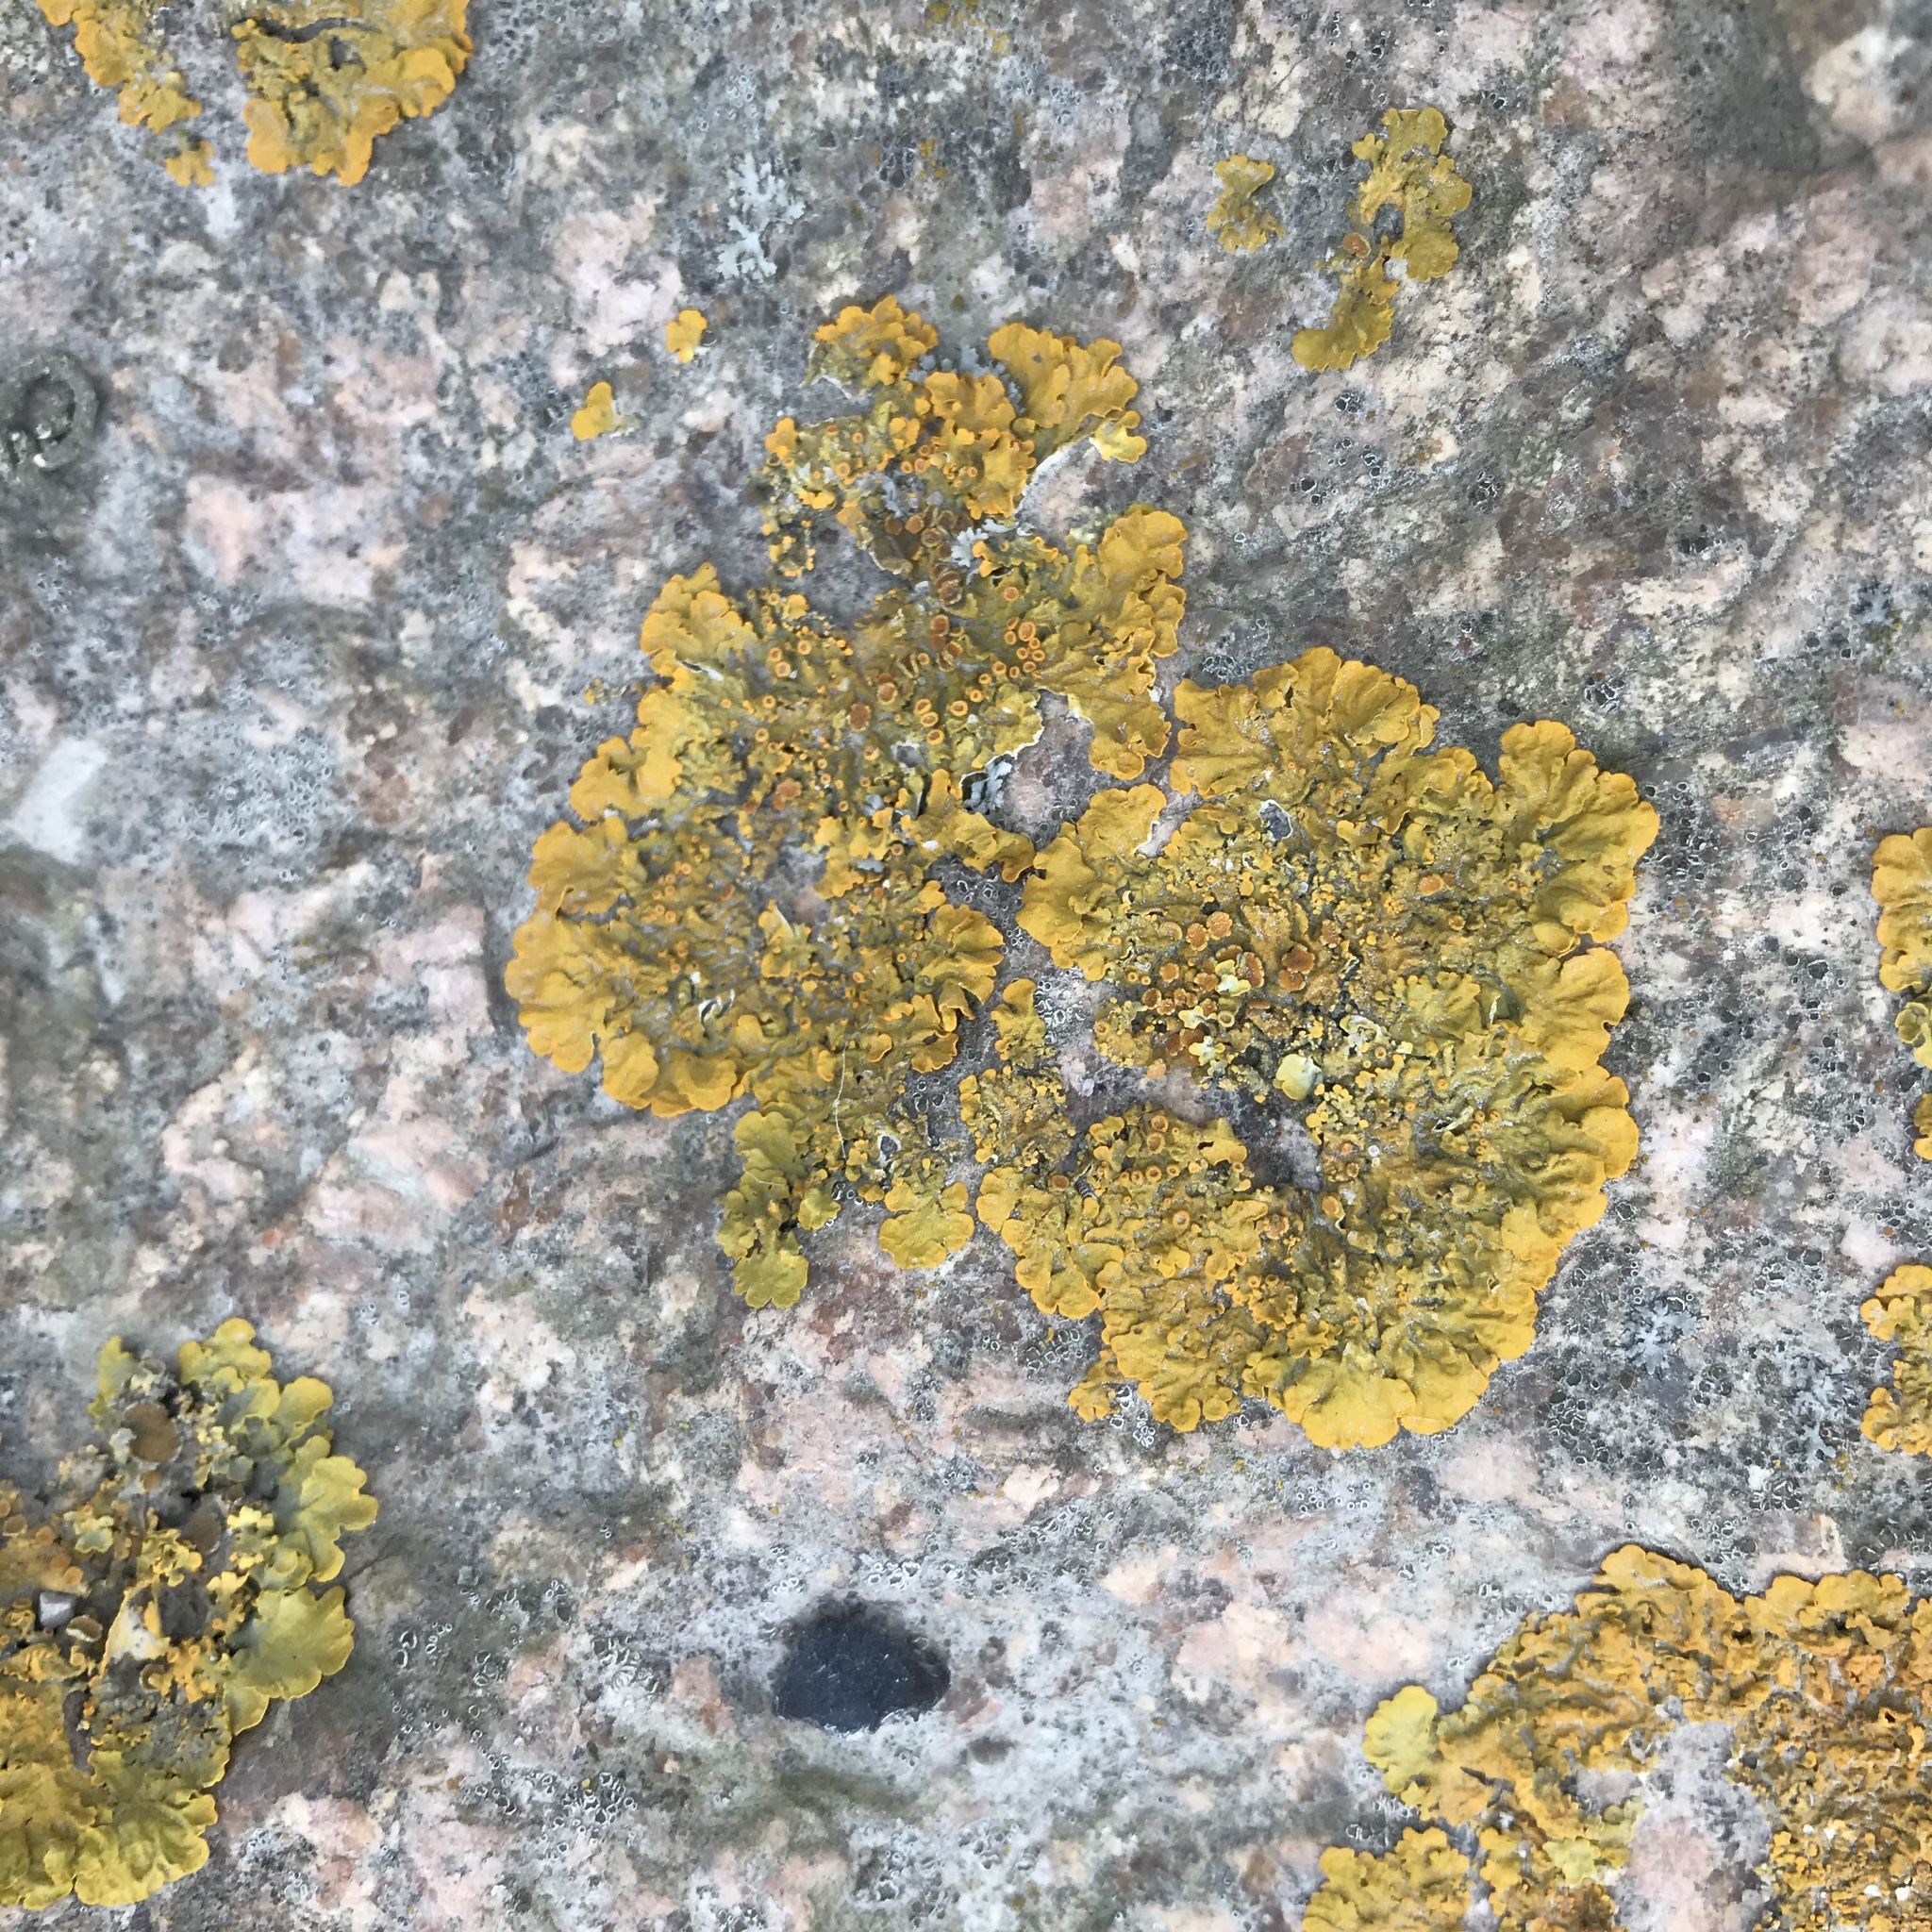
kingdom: Fungi
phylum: Ascomycota
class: Lecanoromycetes
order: Teloschistales
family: Teloschistaceae
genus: Xanthoria
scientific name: Xanthoria parietina
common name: Common orange lichen
